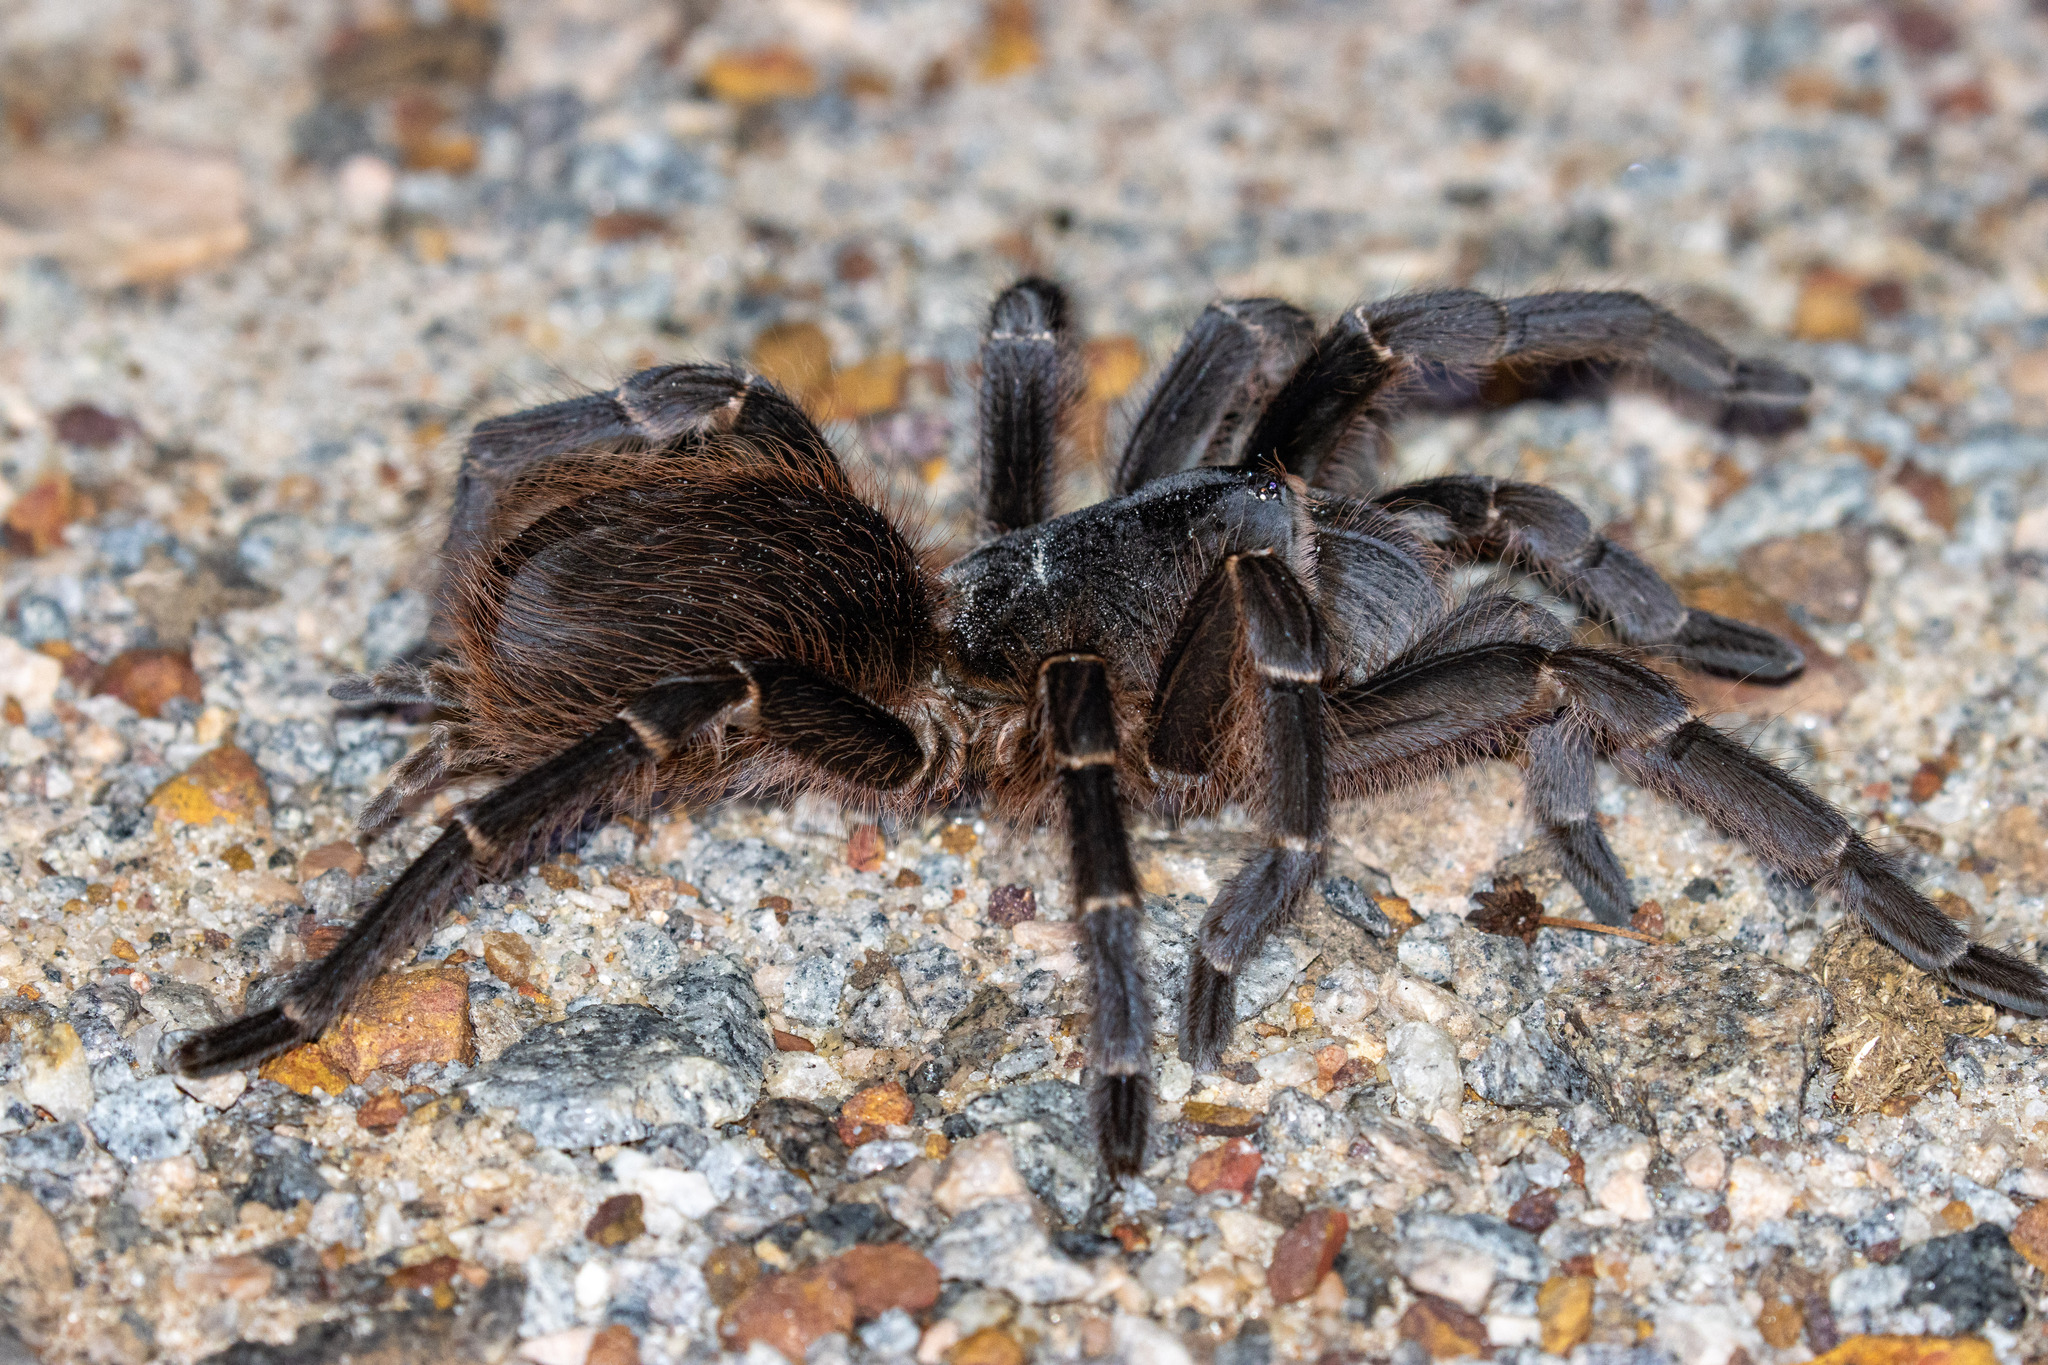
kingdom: Animalia
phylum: Arthropoda
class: Arachnida
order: Araneae
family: Theraphosidae
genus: Acanthoscurria
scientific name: Acanthoscurria natalensis
